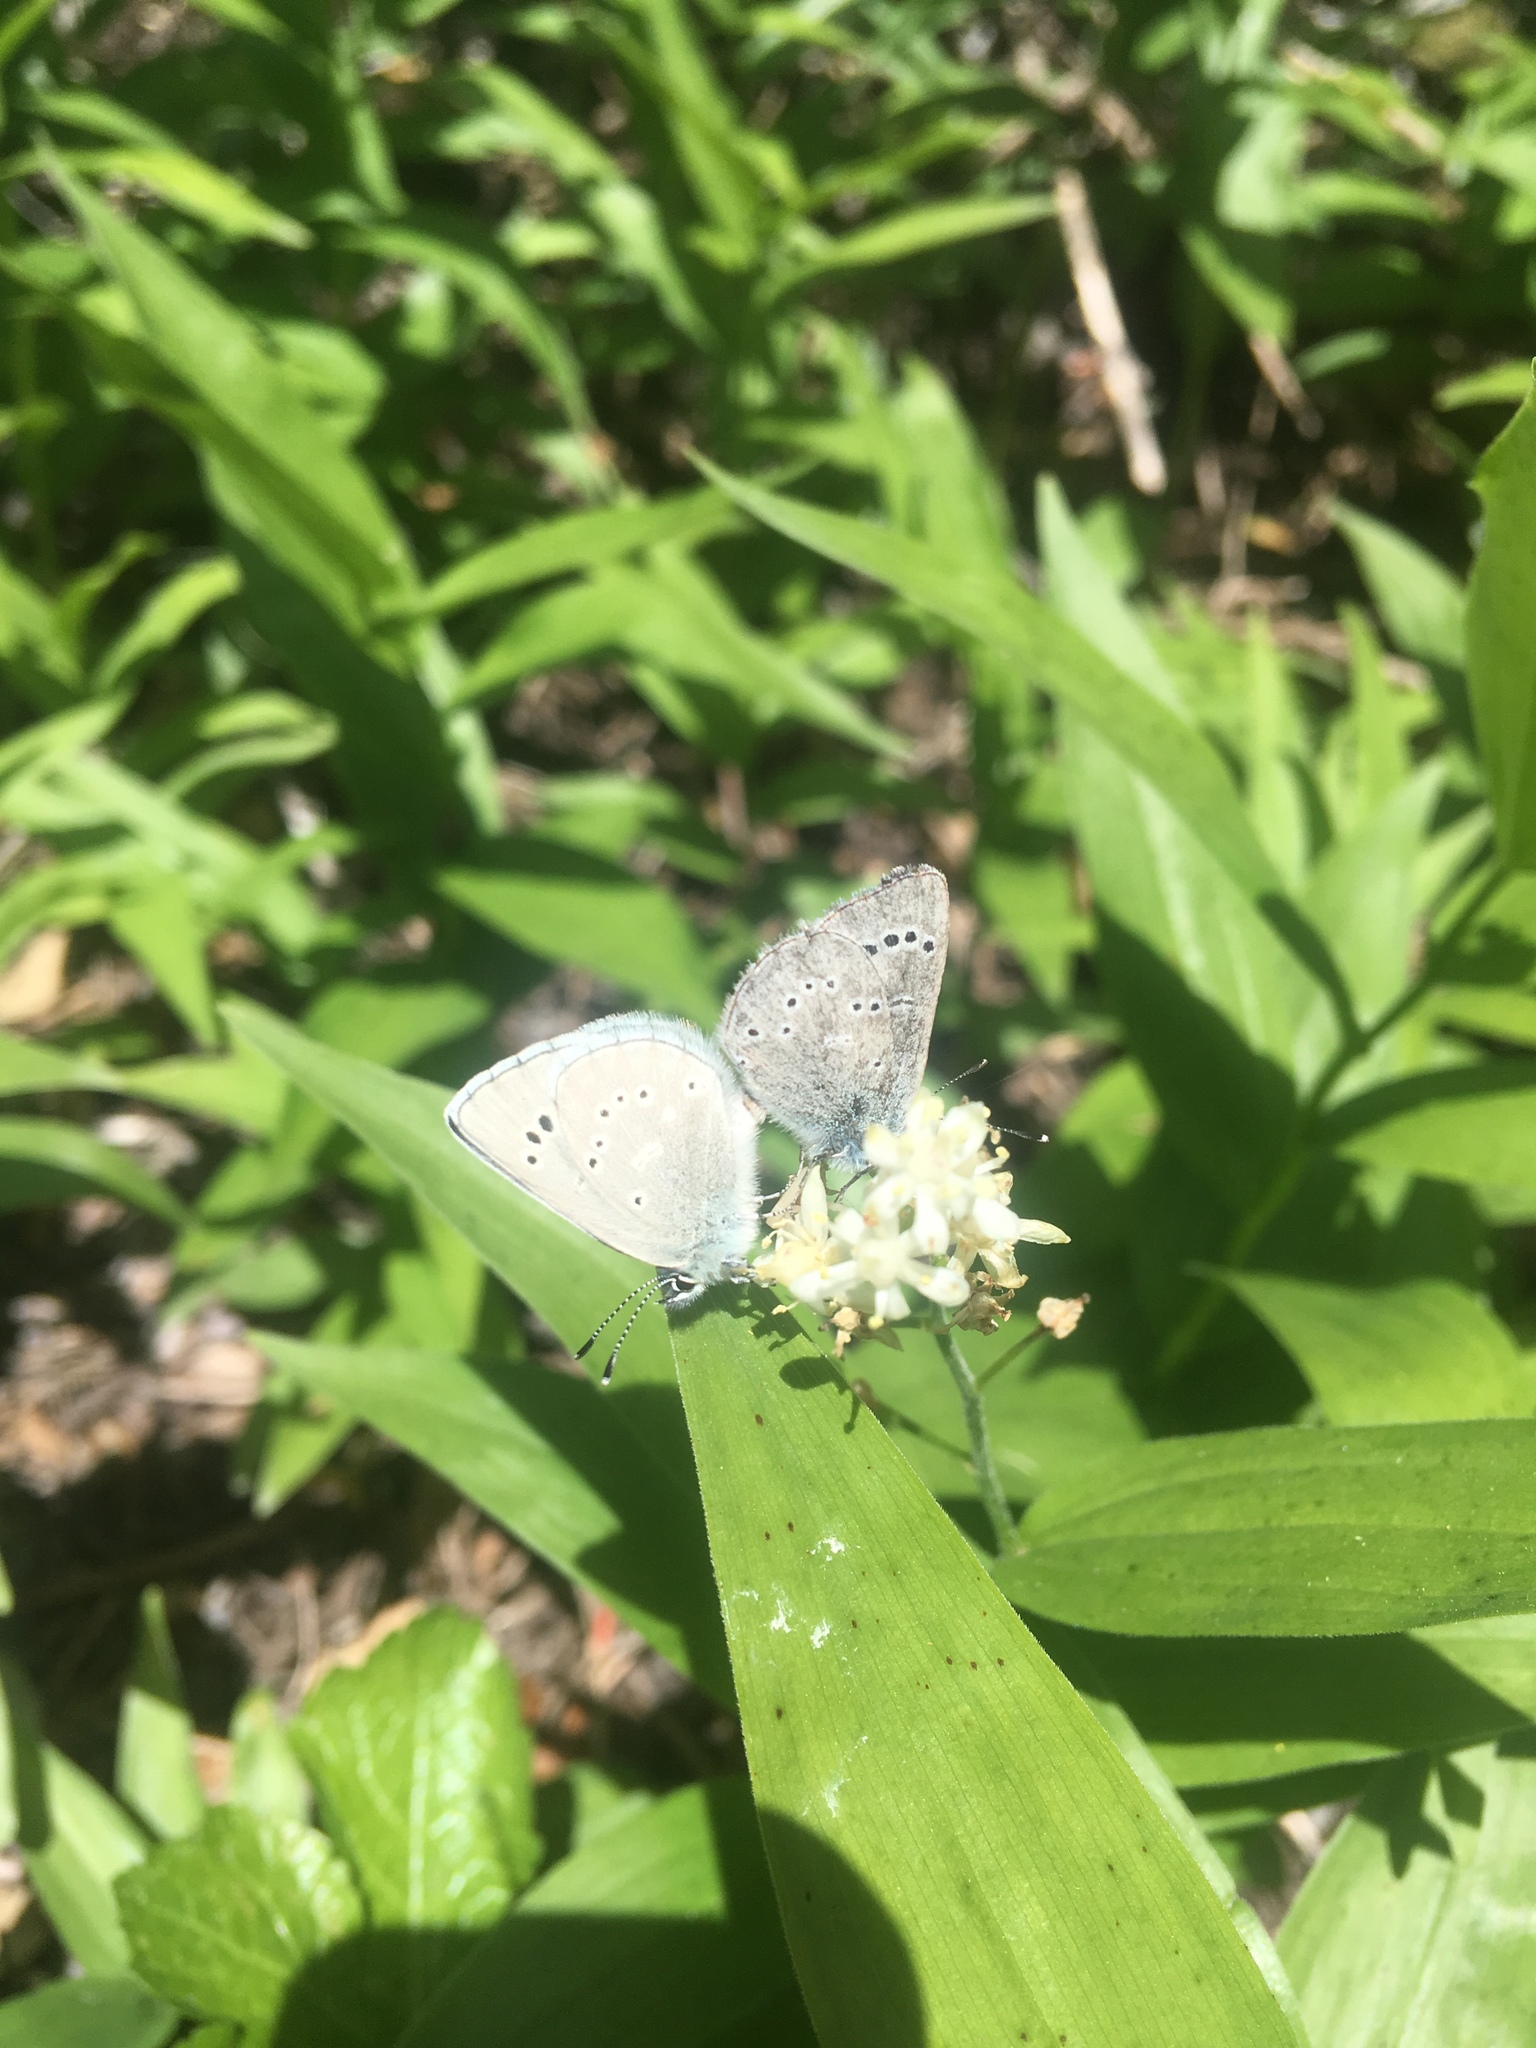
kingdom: Animalia
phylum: Arthropoda
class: Insecta
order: Lepidoptera
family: Lycaenidae
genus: Glaucopsyche
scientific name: Glaucopsyche lygdamus
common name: Silvery blue
